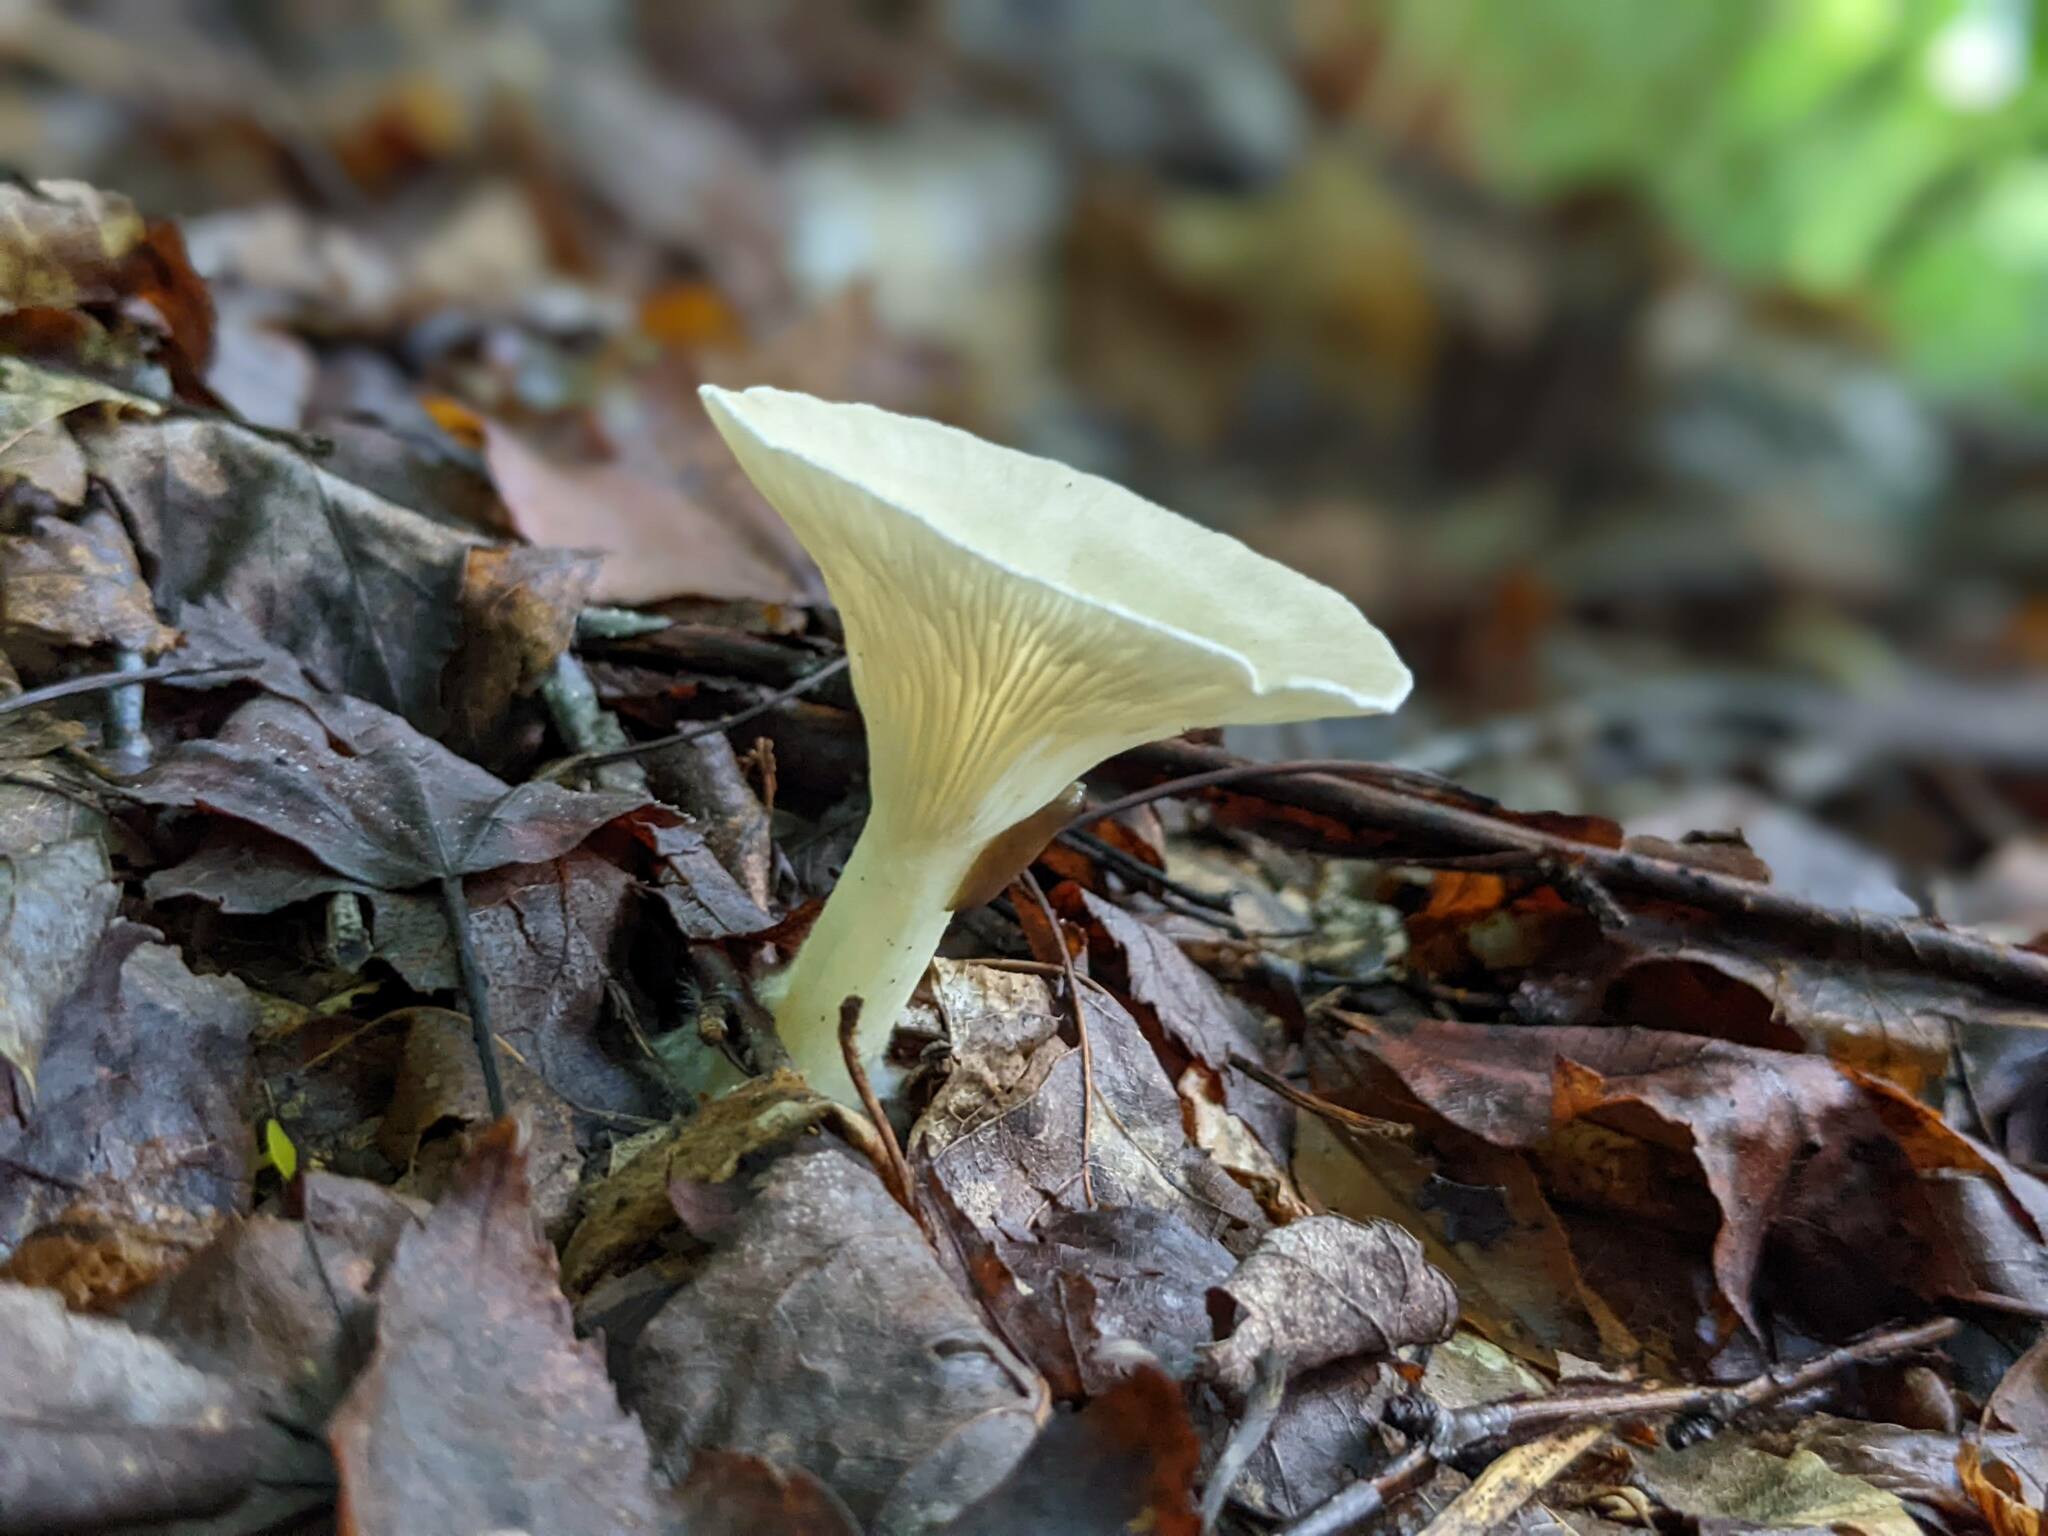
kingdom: Fungi
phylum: Basidiomycota
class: Agaricomycetes
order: Agaricales
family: Tricholomataceae
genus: Infundibulicybe
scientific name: Infundibulicybe gibba
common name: Common funnel
